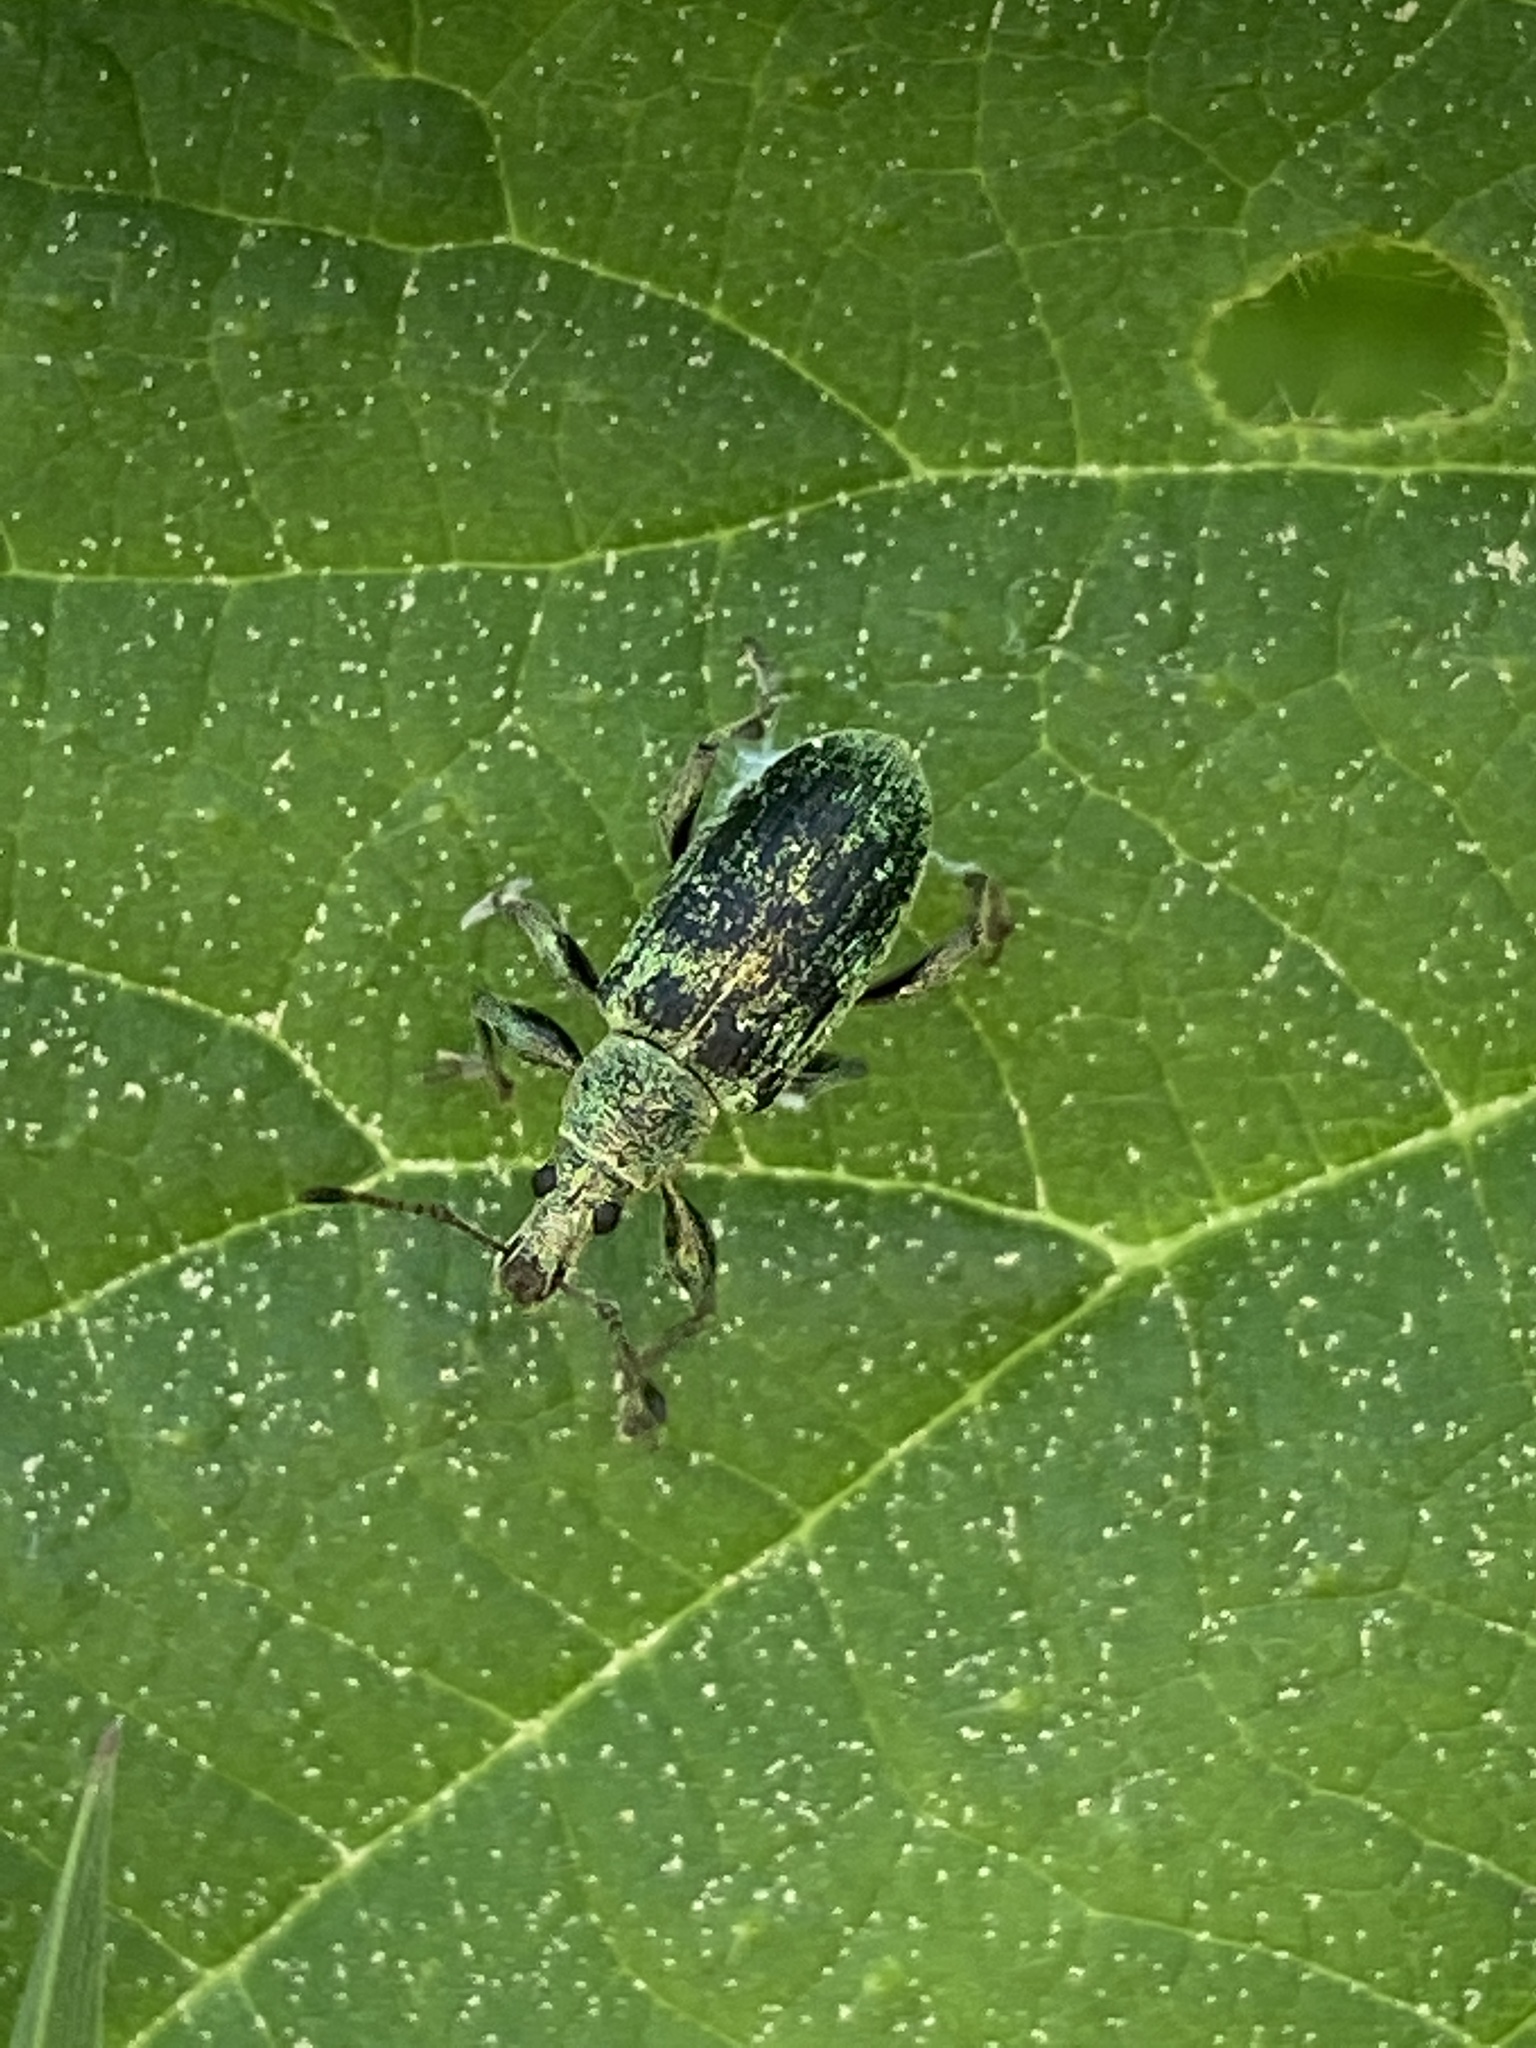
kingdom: Animalia
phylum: Arthropoda
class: Insecta
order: Coleoptera
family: Curculionidae
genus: Phyllobius
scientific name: Phyllobius pomaceus
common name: Green nettle weevil
